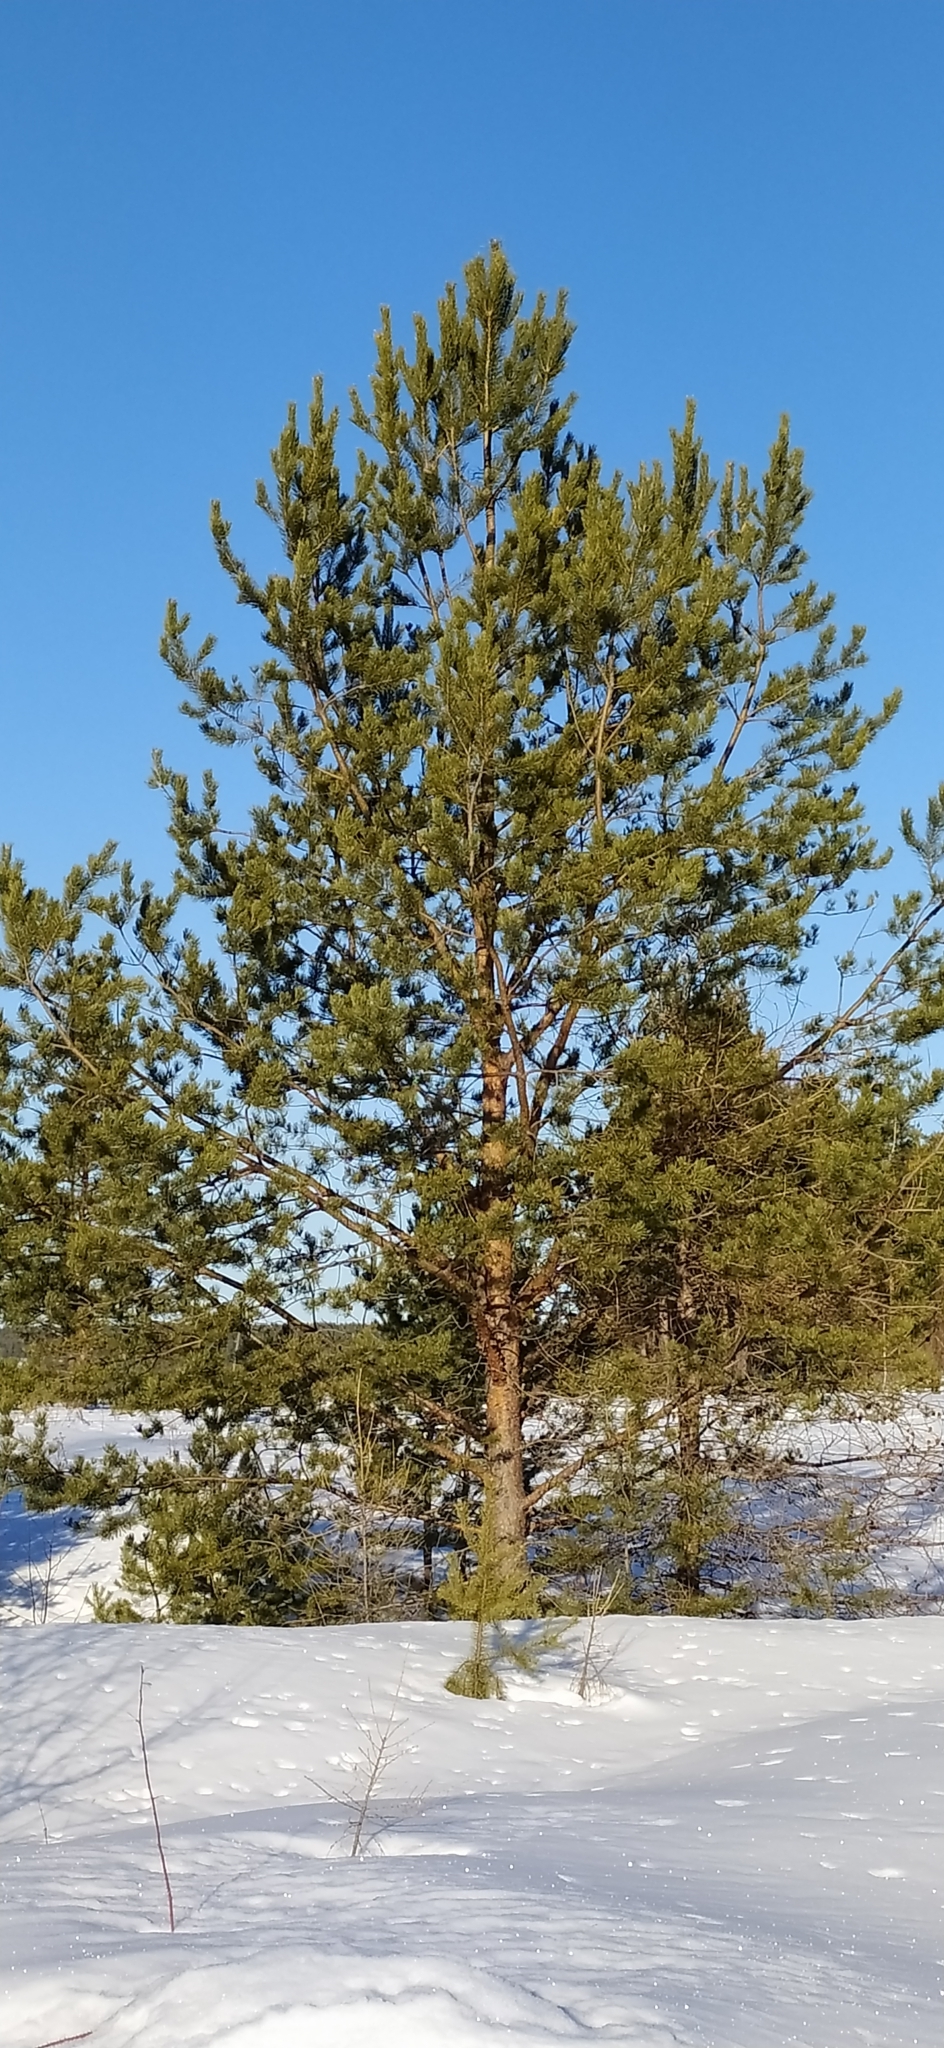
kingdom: Plantae
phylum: Tracheophyta
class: Pinopsida
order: Pinales
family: Pinaceae
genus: Pinus
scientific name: Pinus sylvestris
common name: Scots pine
